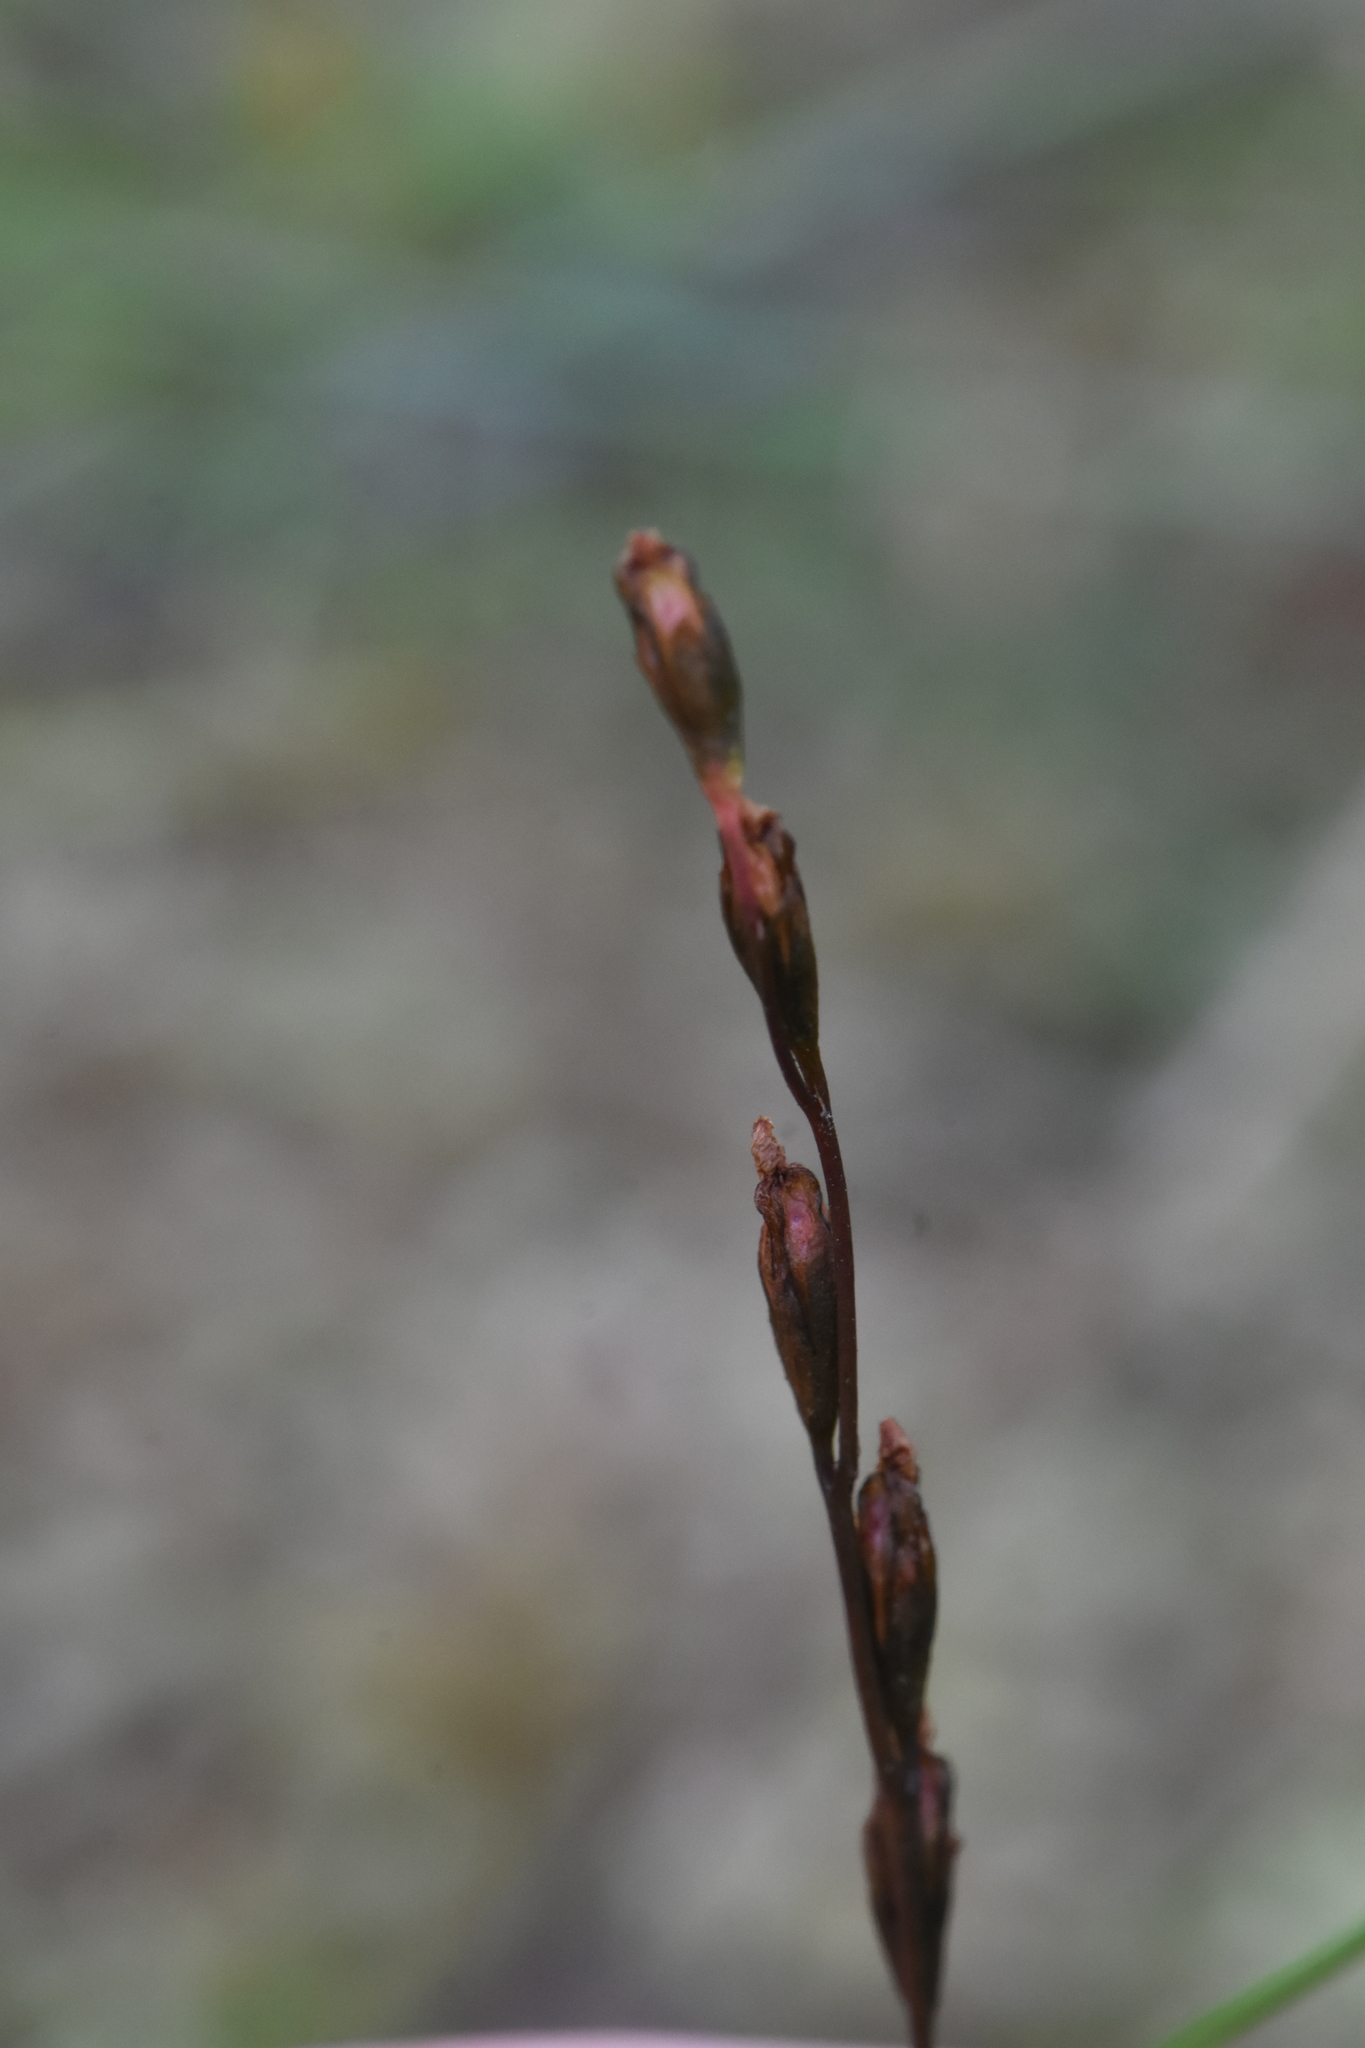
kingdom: Plantae
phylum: Tracheophyta
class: Magnoliopsida
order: Caryophyllales
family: Droseraceae
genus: Drosera
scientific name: Drosera rotundifolia
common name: Round-leaved sundew
